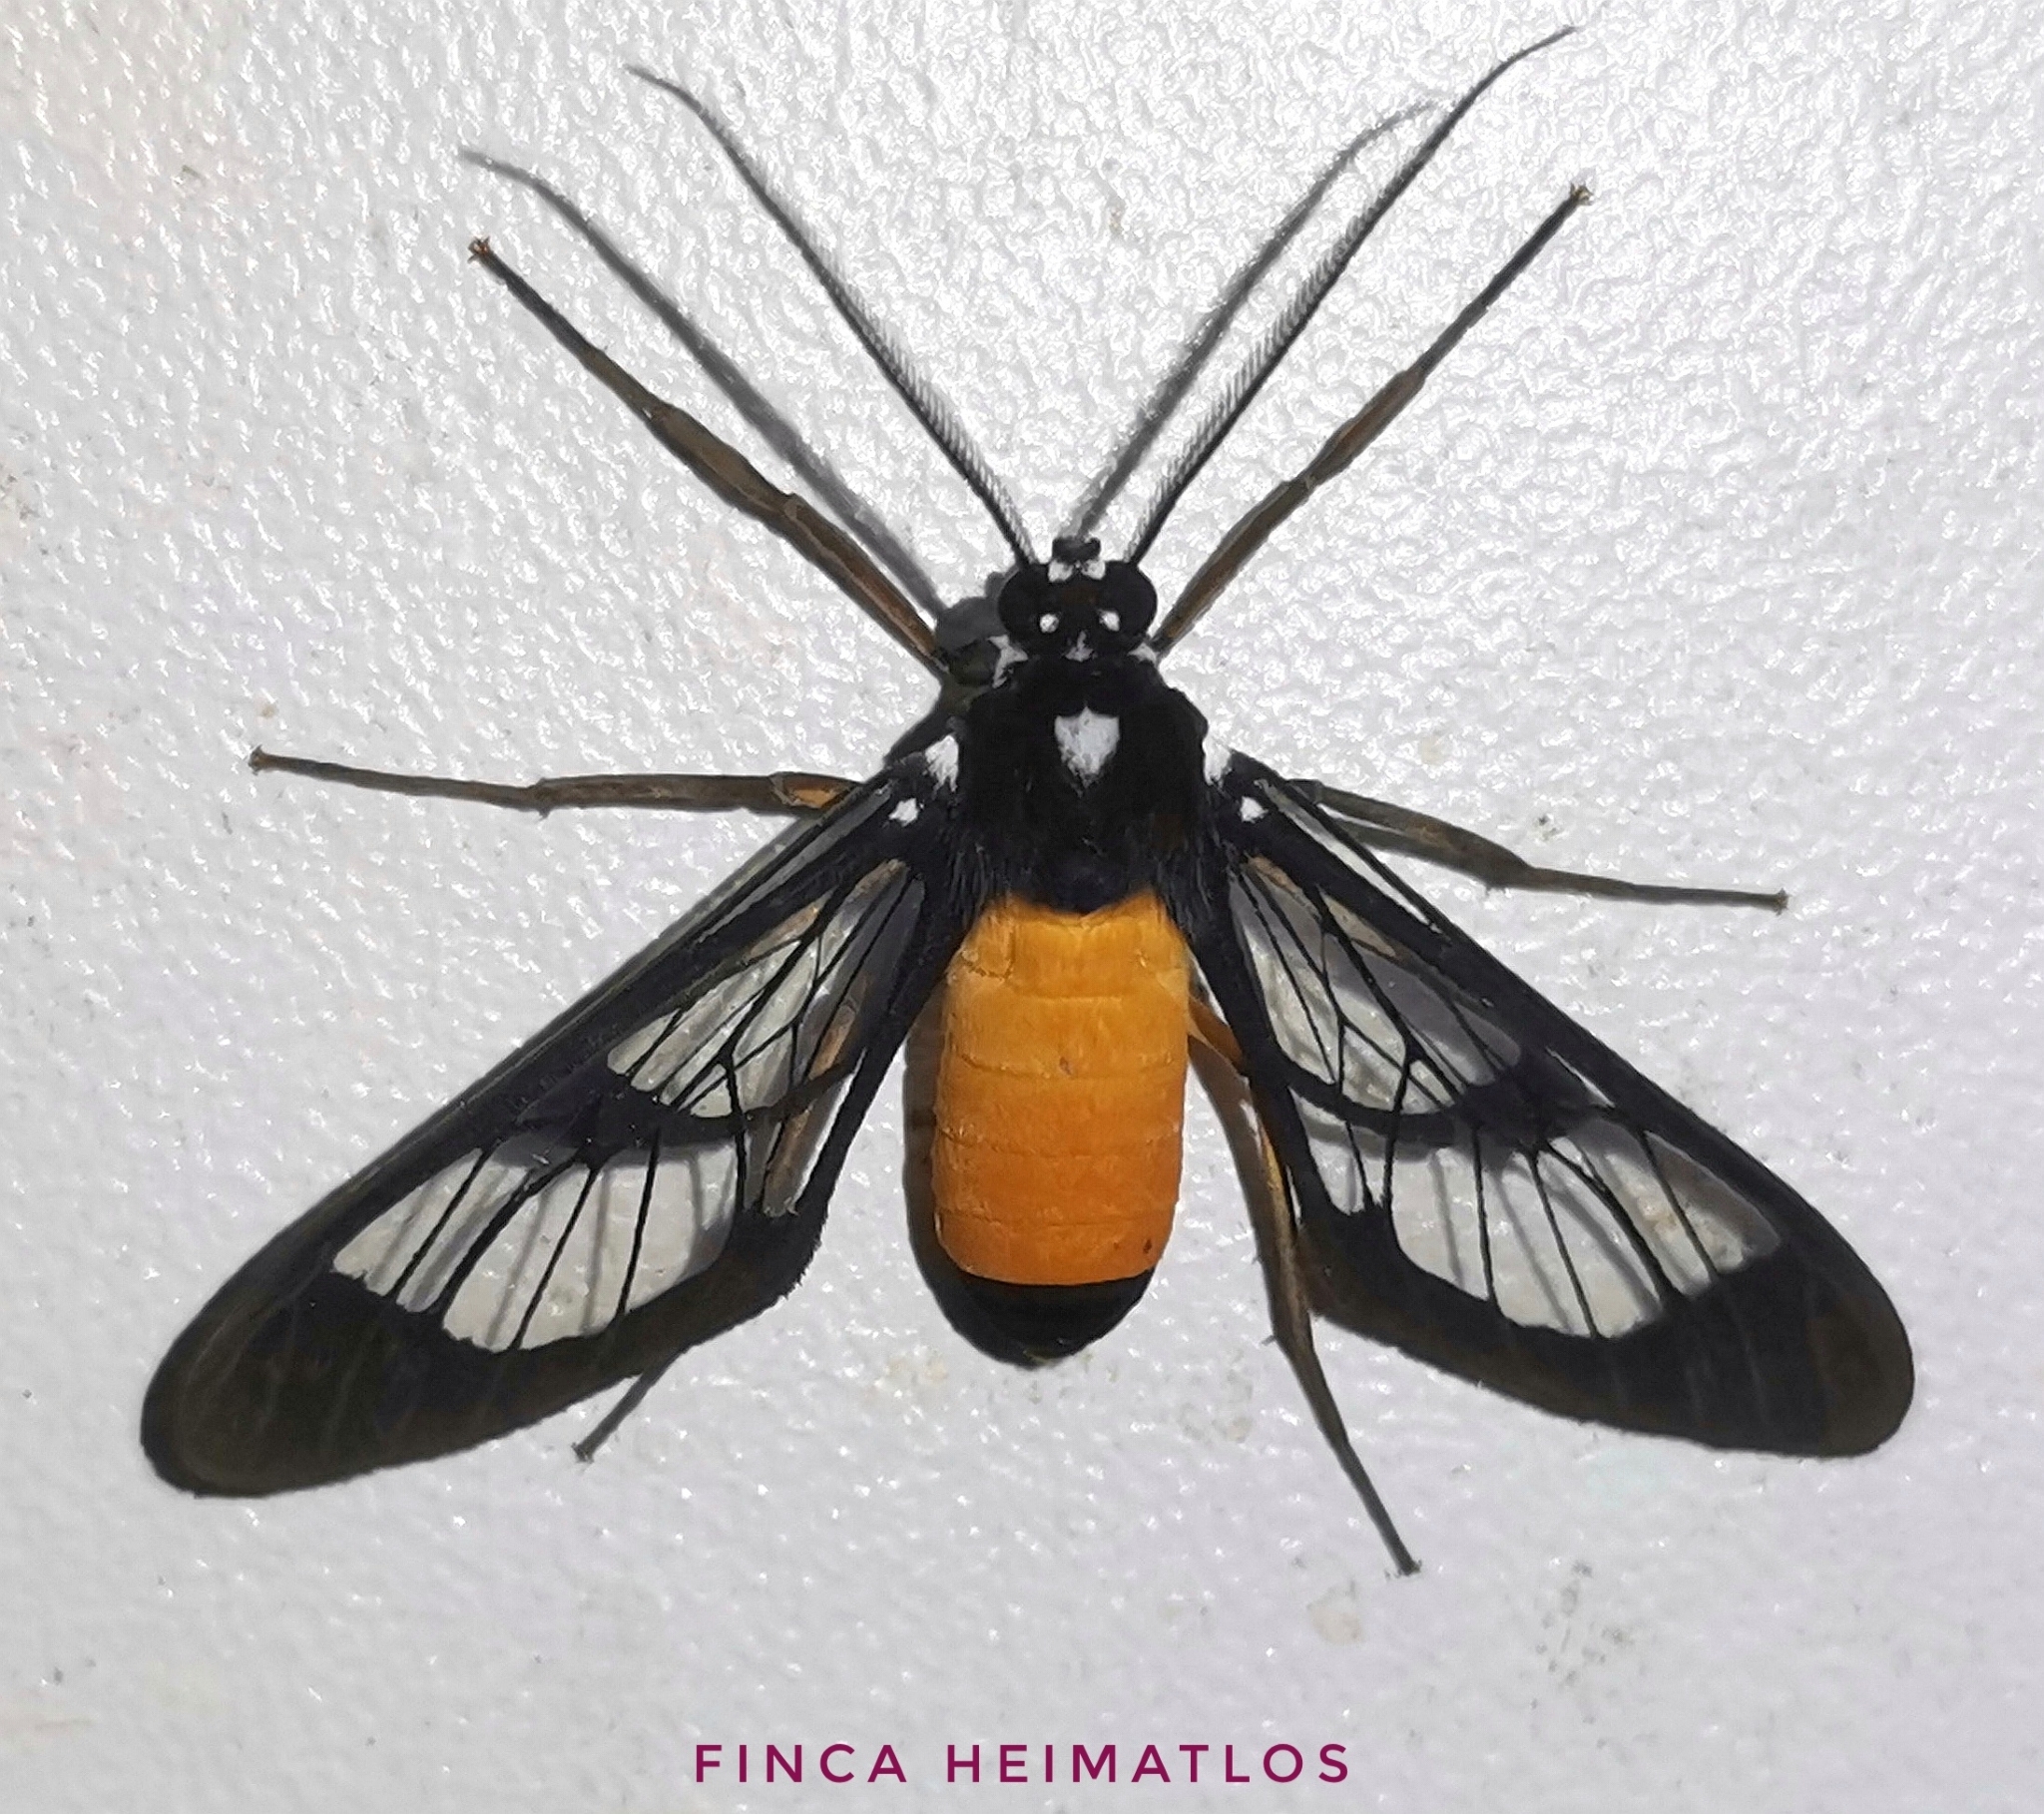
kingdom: Animalia
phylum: Arthropoda
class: Insecta
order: Lepidoptera
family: Erebidae
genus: Cosmosoma
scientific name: Cosmosoma stibosticta
